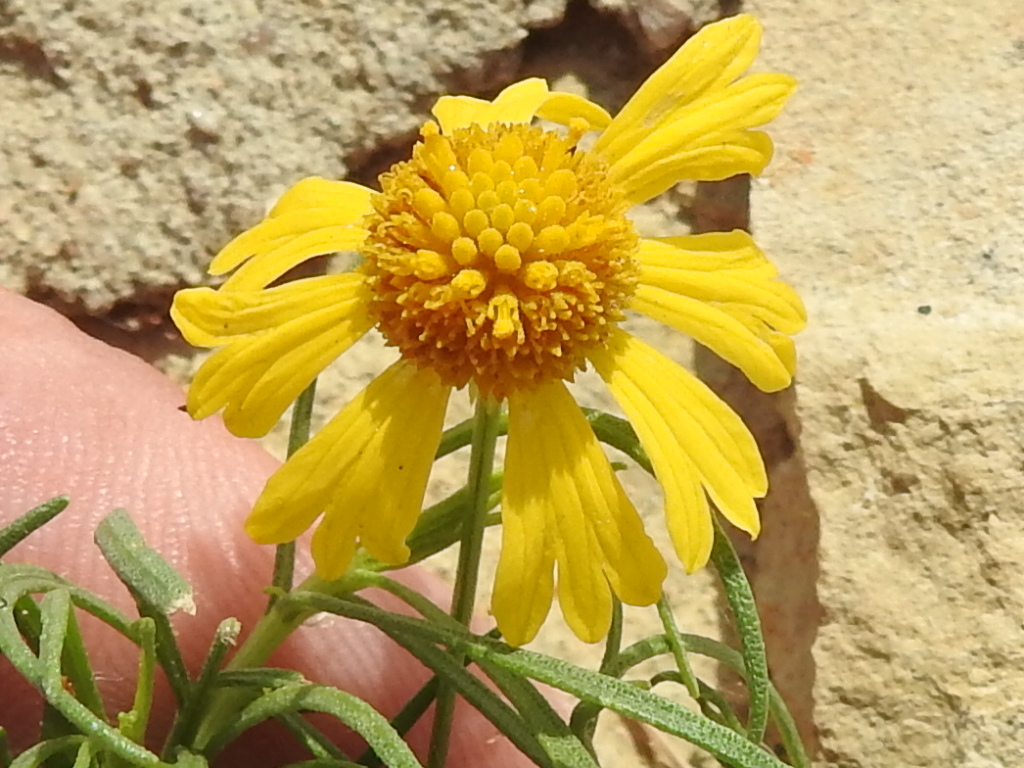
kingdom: Plantae
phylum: Tracheophyta
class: Magnoliopsida
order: Asterales
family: Asteraceae
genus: Helenium
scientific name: Helenium amarum
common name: Bitter sneezeweed
